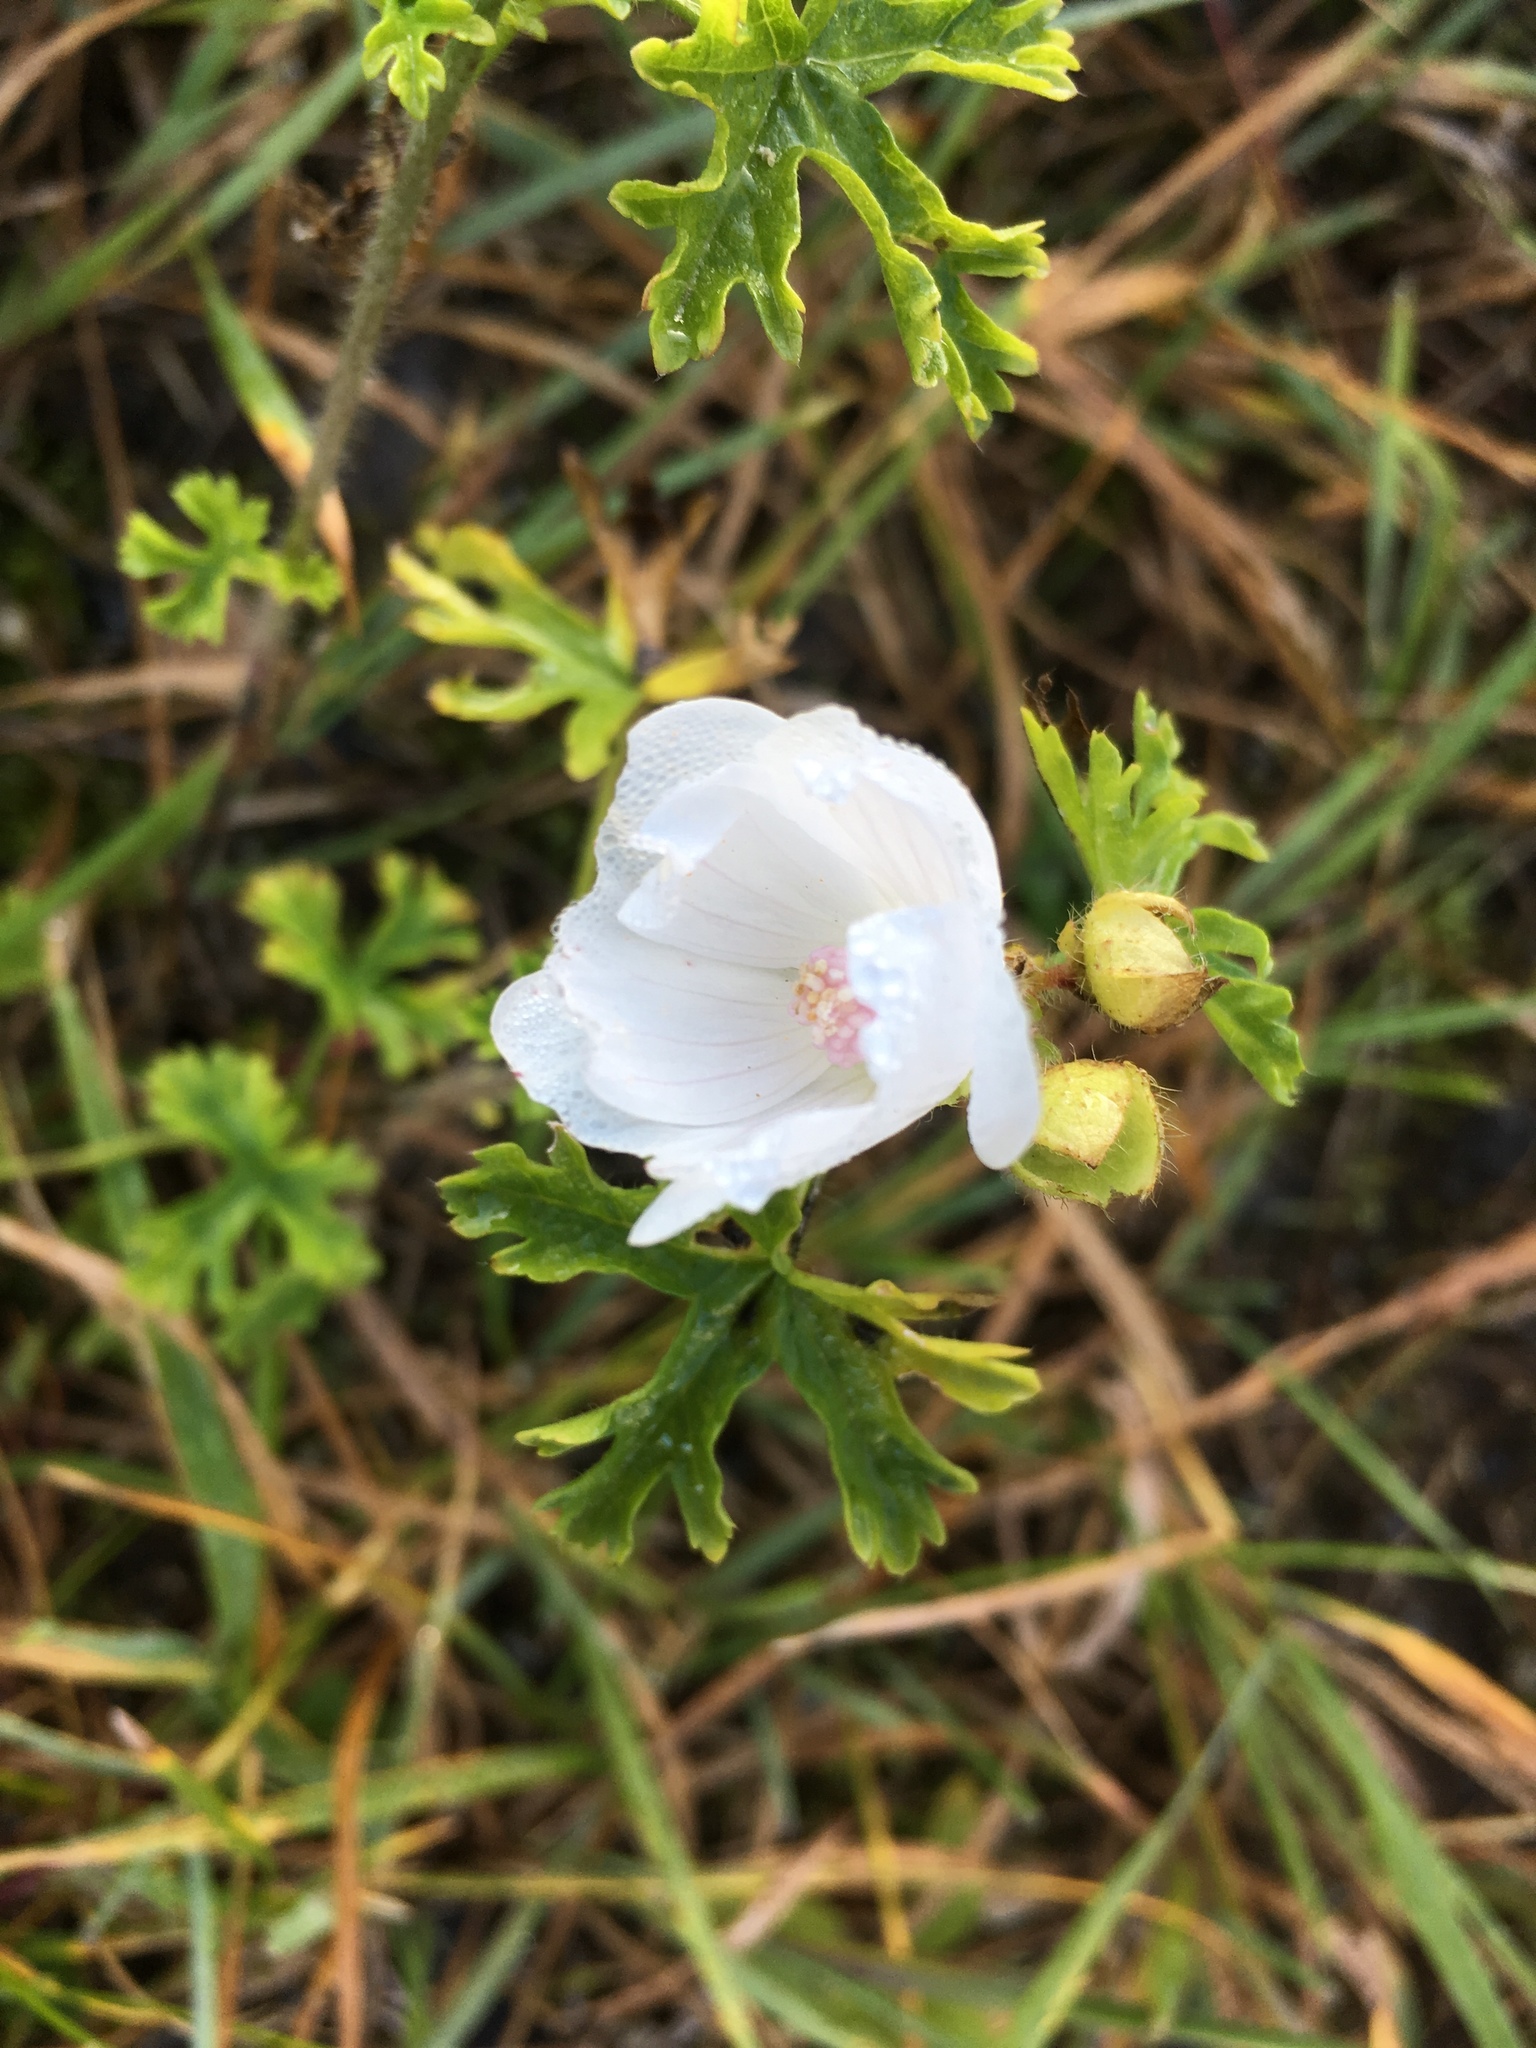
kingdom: Plantae
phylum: Tracheophyta
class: Magnoliopsida
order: Malvales
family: Malvaceae
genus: Malva
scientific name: Malva moschata
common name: Musk mallow
